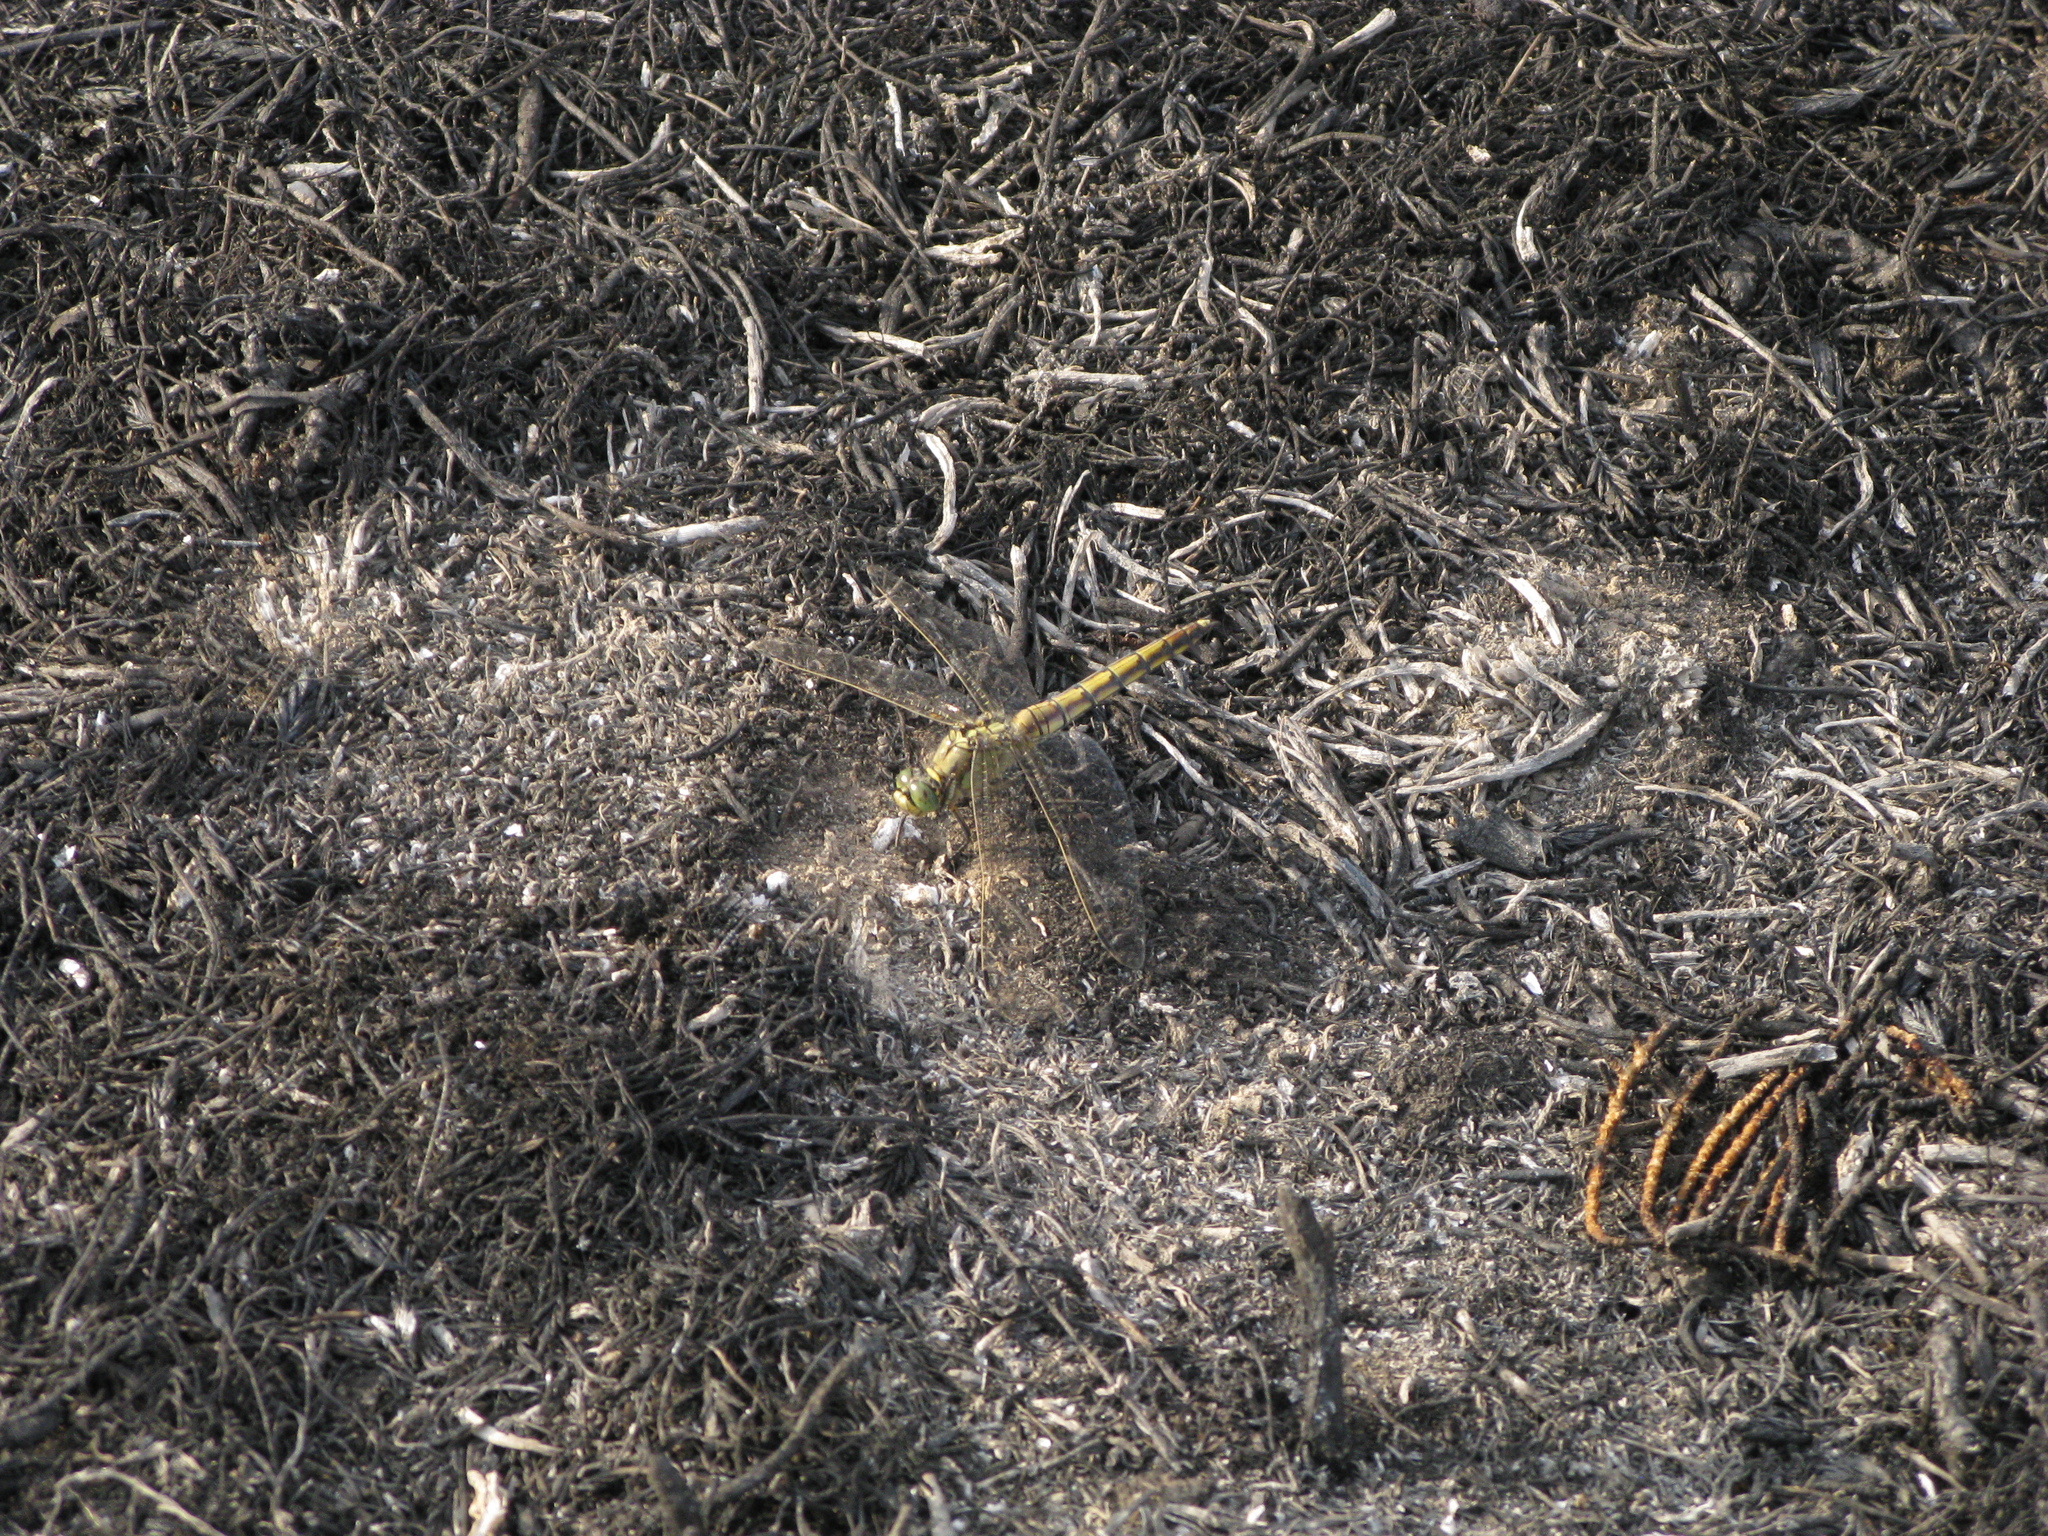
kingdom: Animalia
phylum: Arthropoda
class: Insecta
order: Odonata
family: Libellulidae
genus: Orthetrum
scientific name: Orthetrum cancellatum
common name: Black-tailed skimmer
